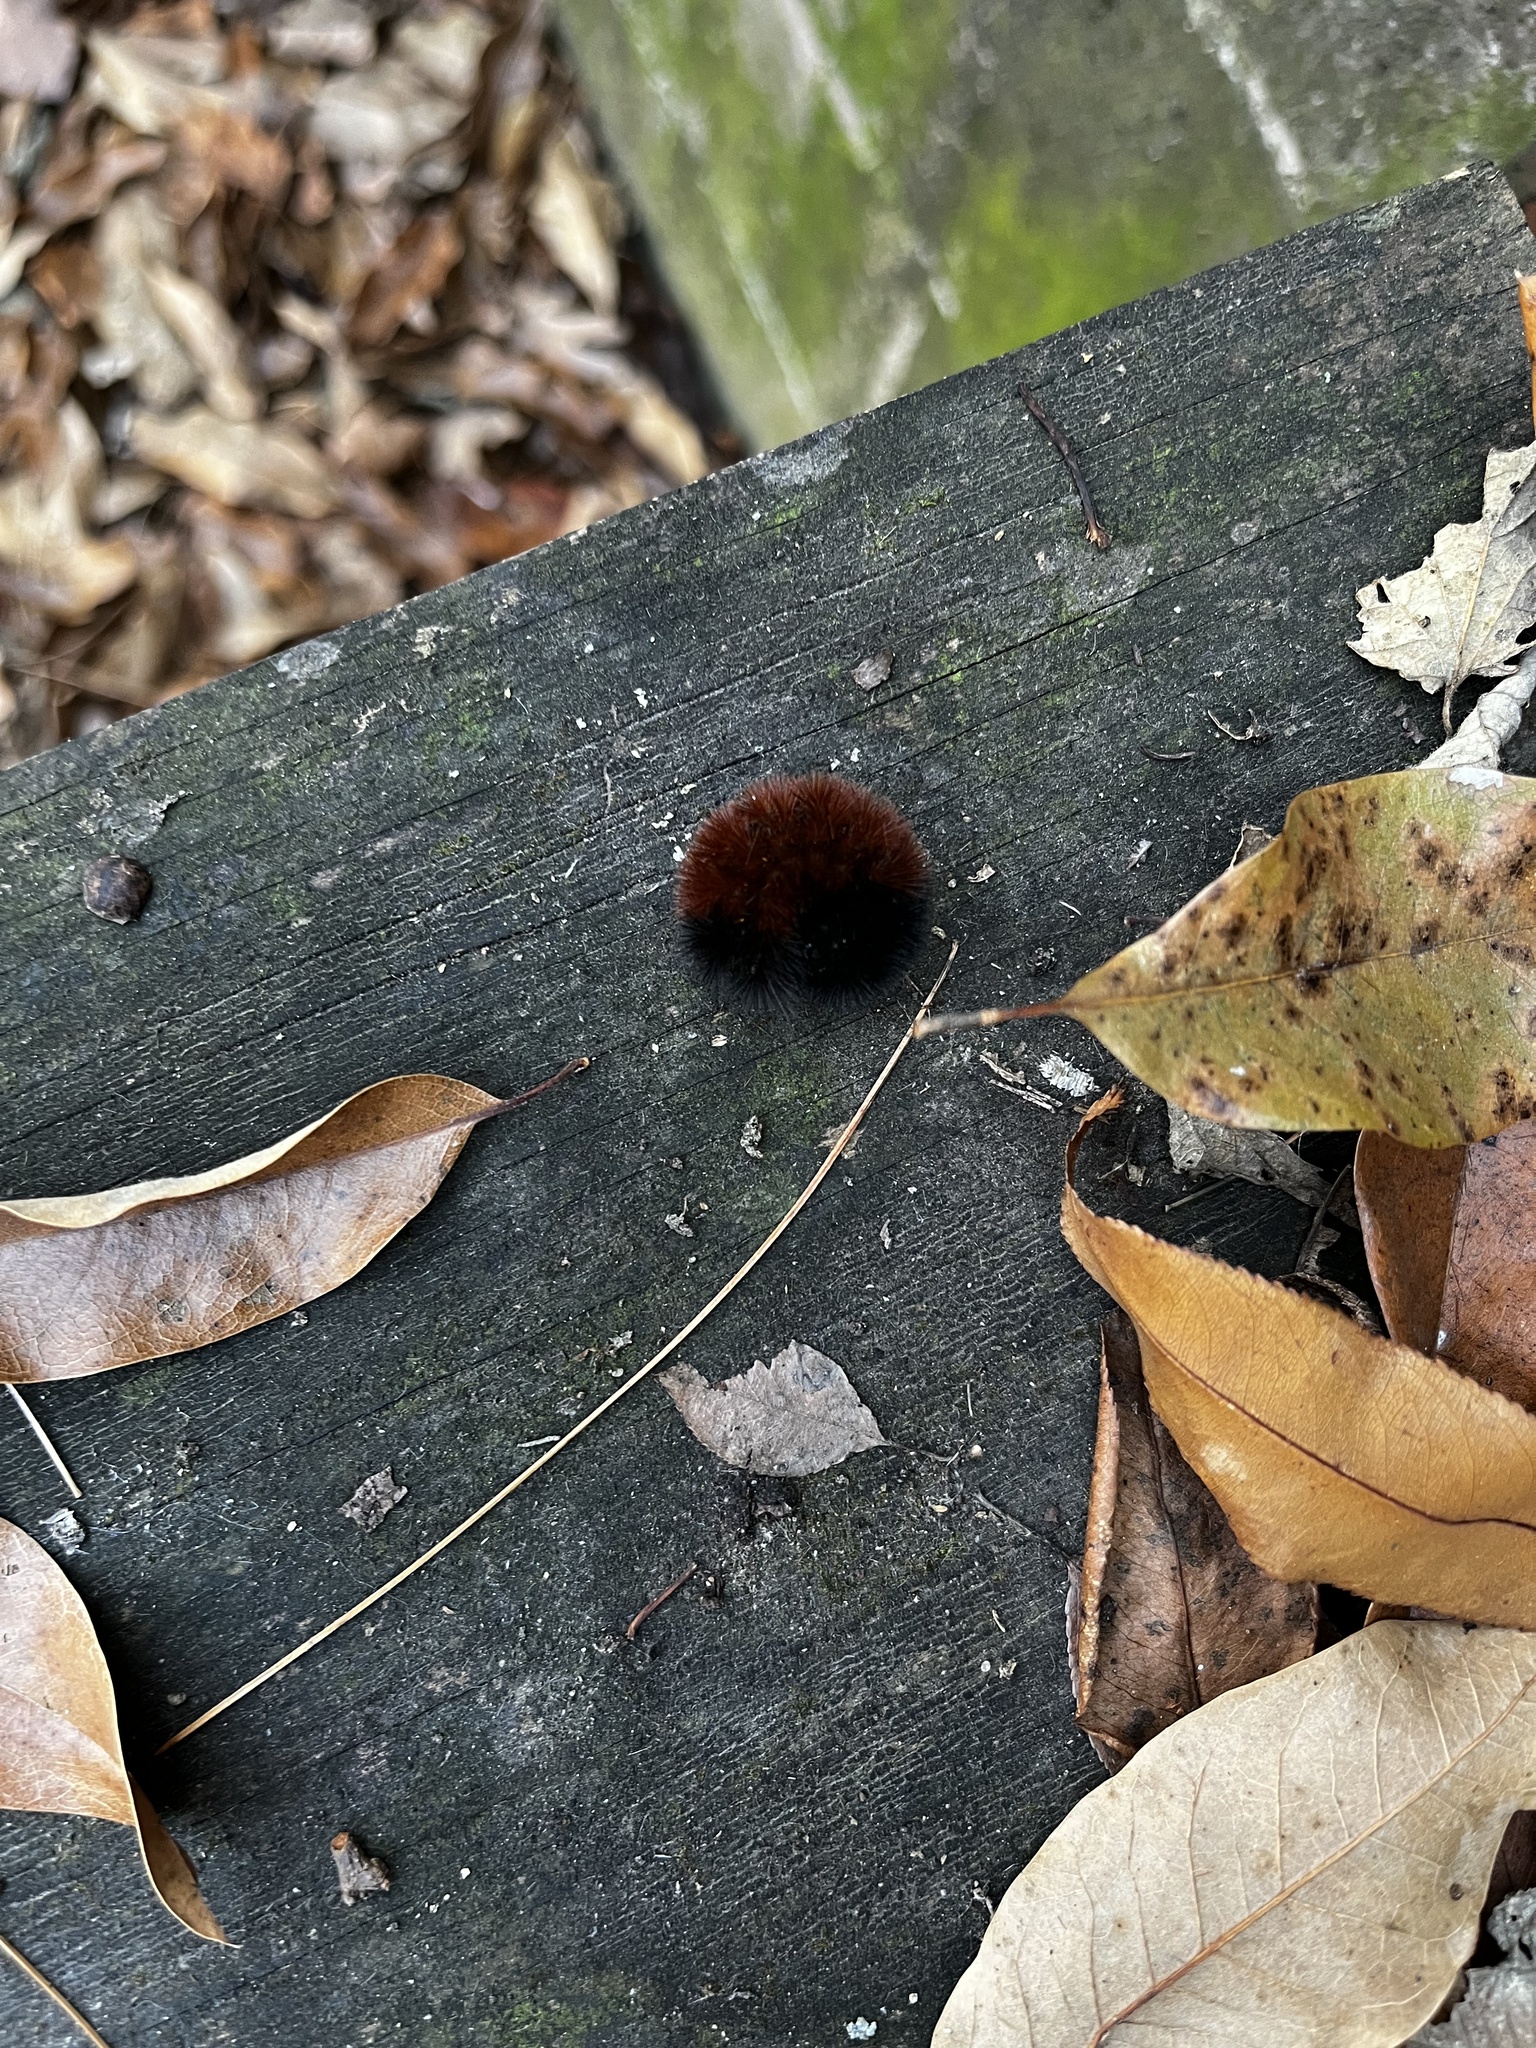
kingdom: Animalia
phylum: Arthropoda
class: Insecta
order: Lepidoptera
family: Erebidae
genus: Pyrrharctia
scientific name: Pyrrharctia isabella
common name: Isabella tiger moth
